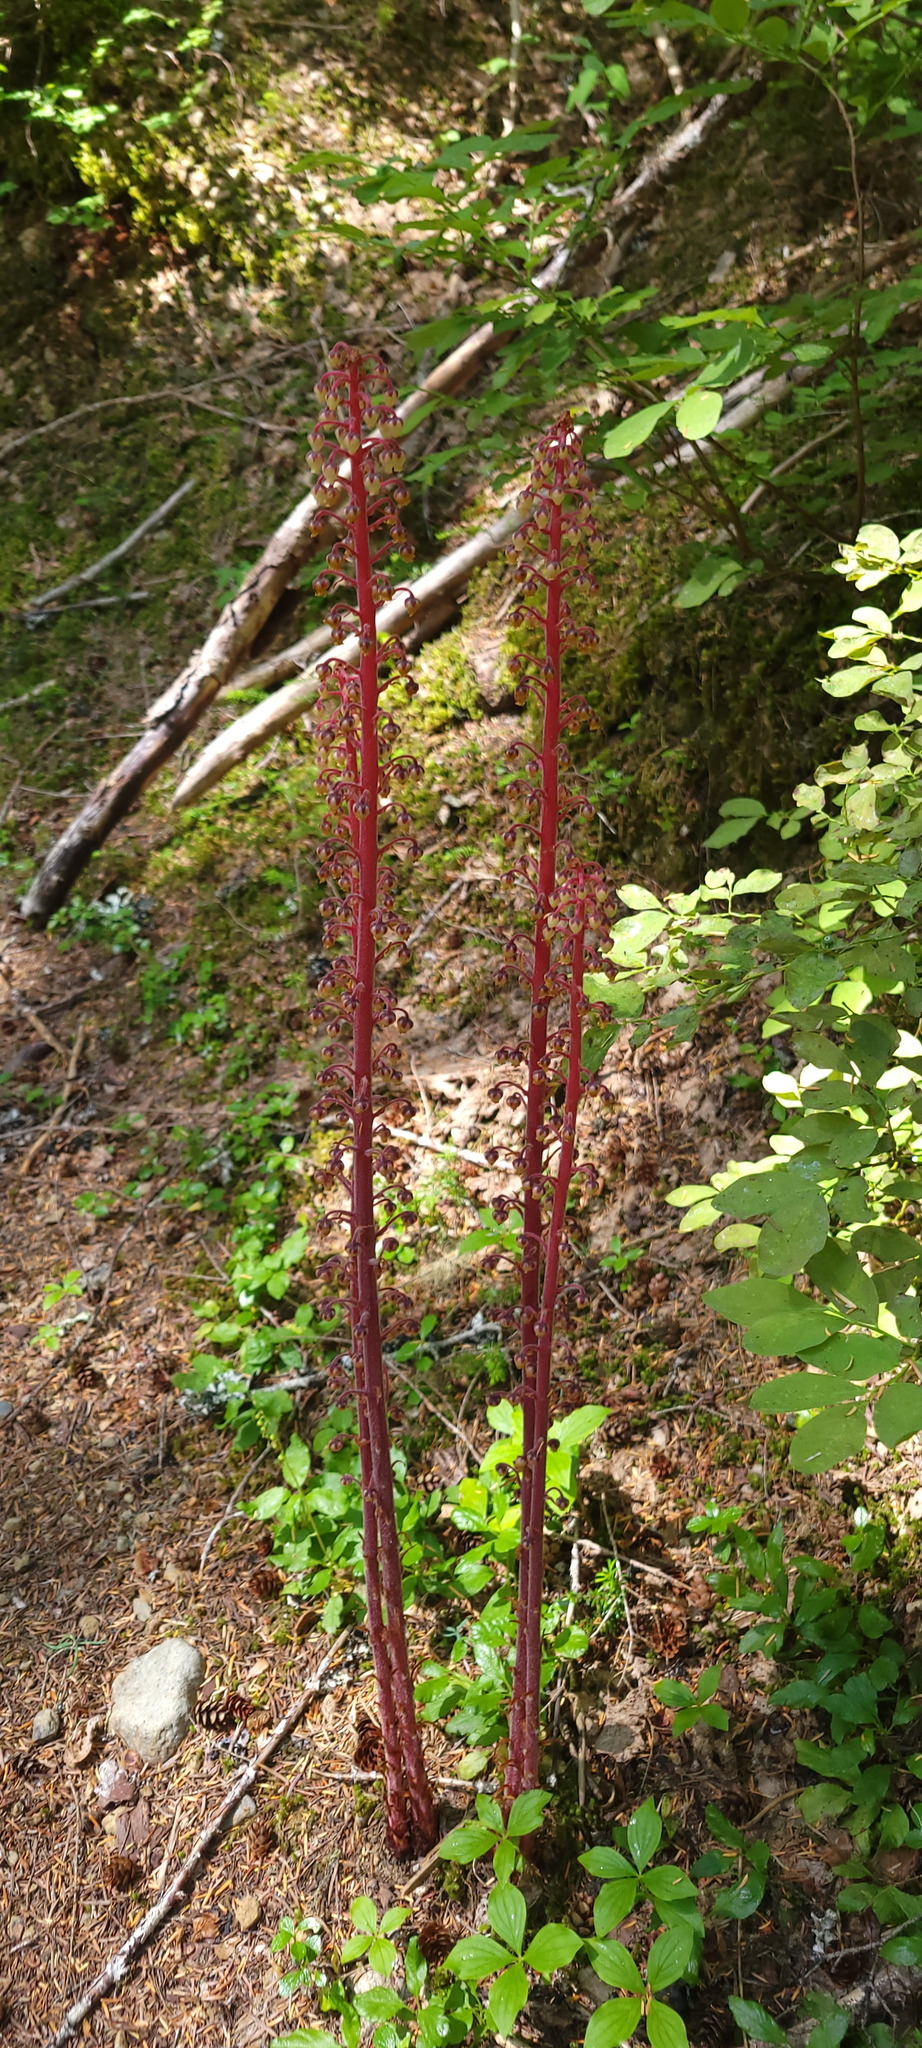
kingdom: Plantae
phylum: Tracheophyta
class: Magnoliopsida
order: Ericales
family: Ericaceae
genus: Pterospora
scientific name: Pterospora andromedea
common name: Giant bird's-nest
